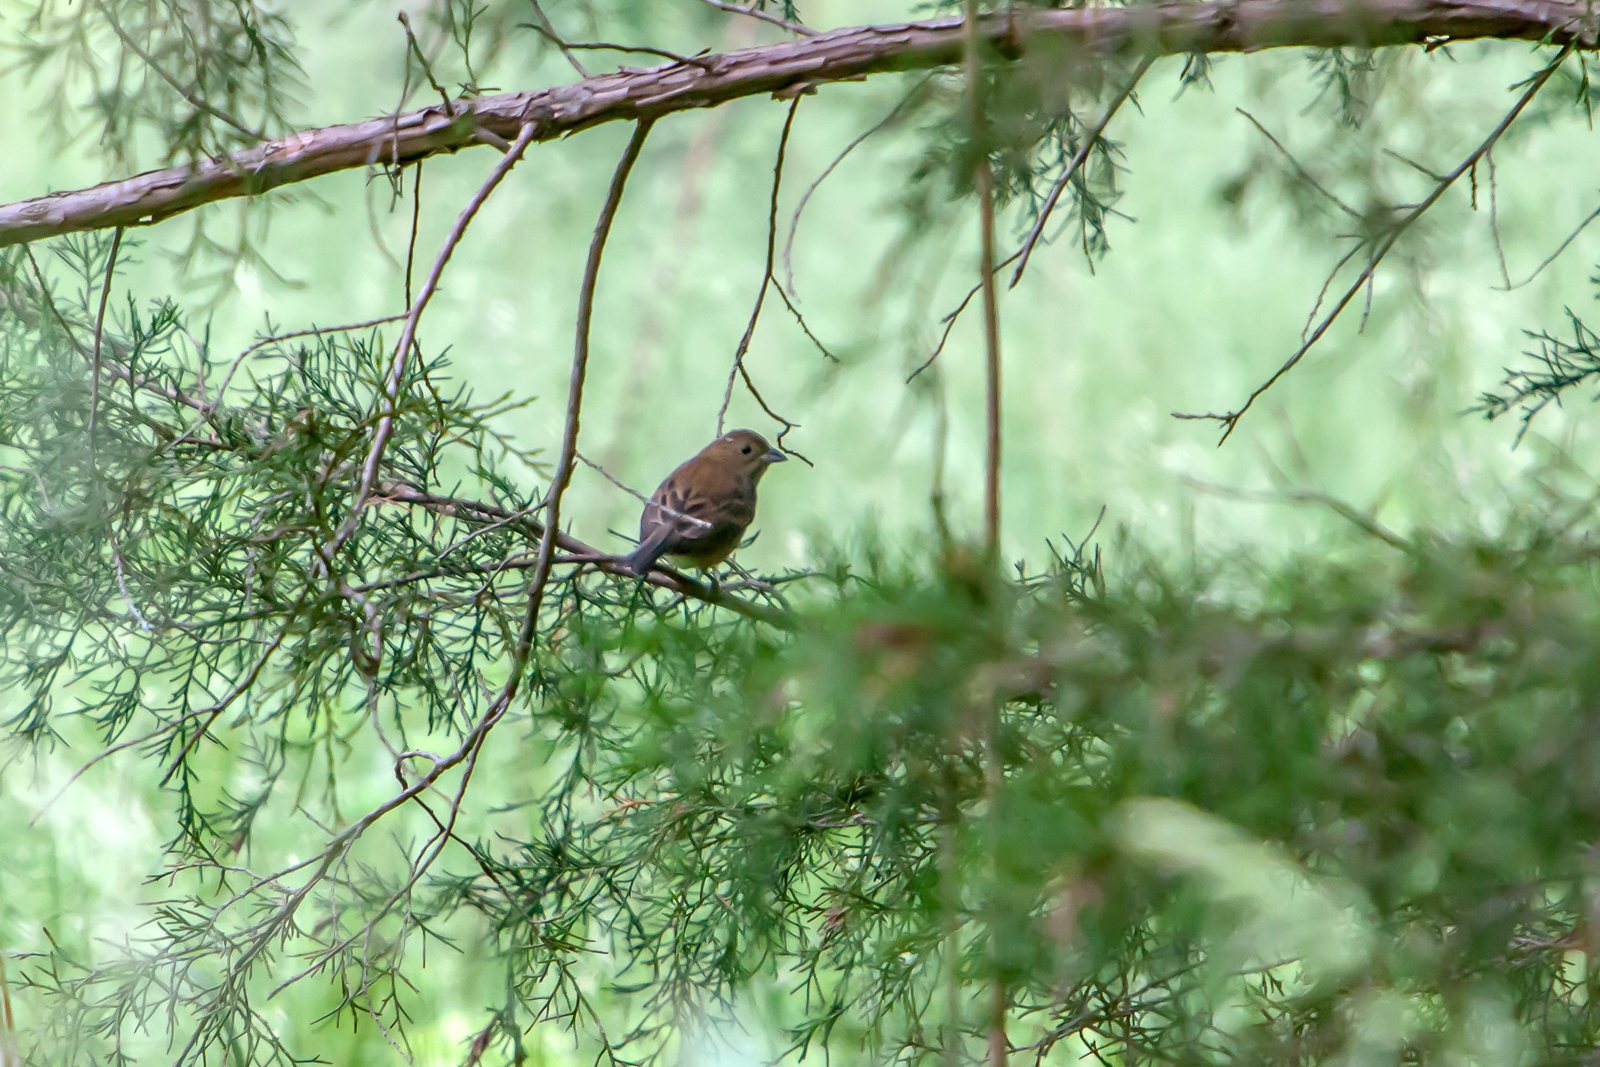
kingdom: Animalia
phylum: Chordata
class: Aves
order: Passeriformes
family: Cardinalidae
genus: Passerina
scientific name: Passerina cyanea
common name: Indigo bunting
